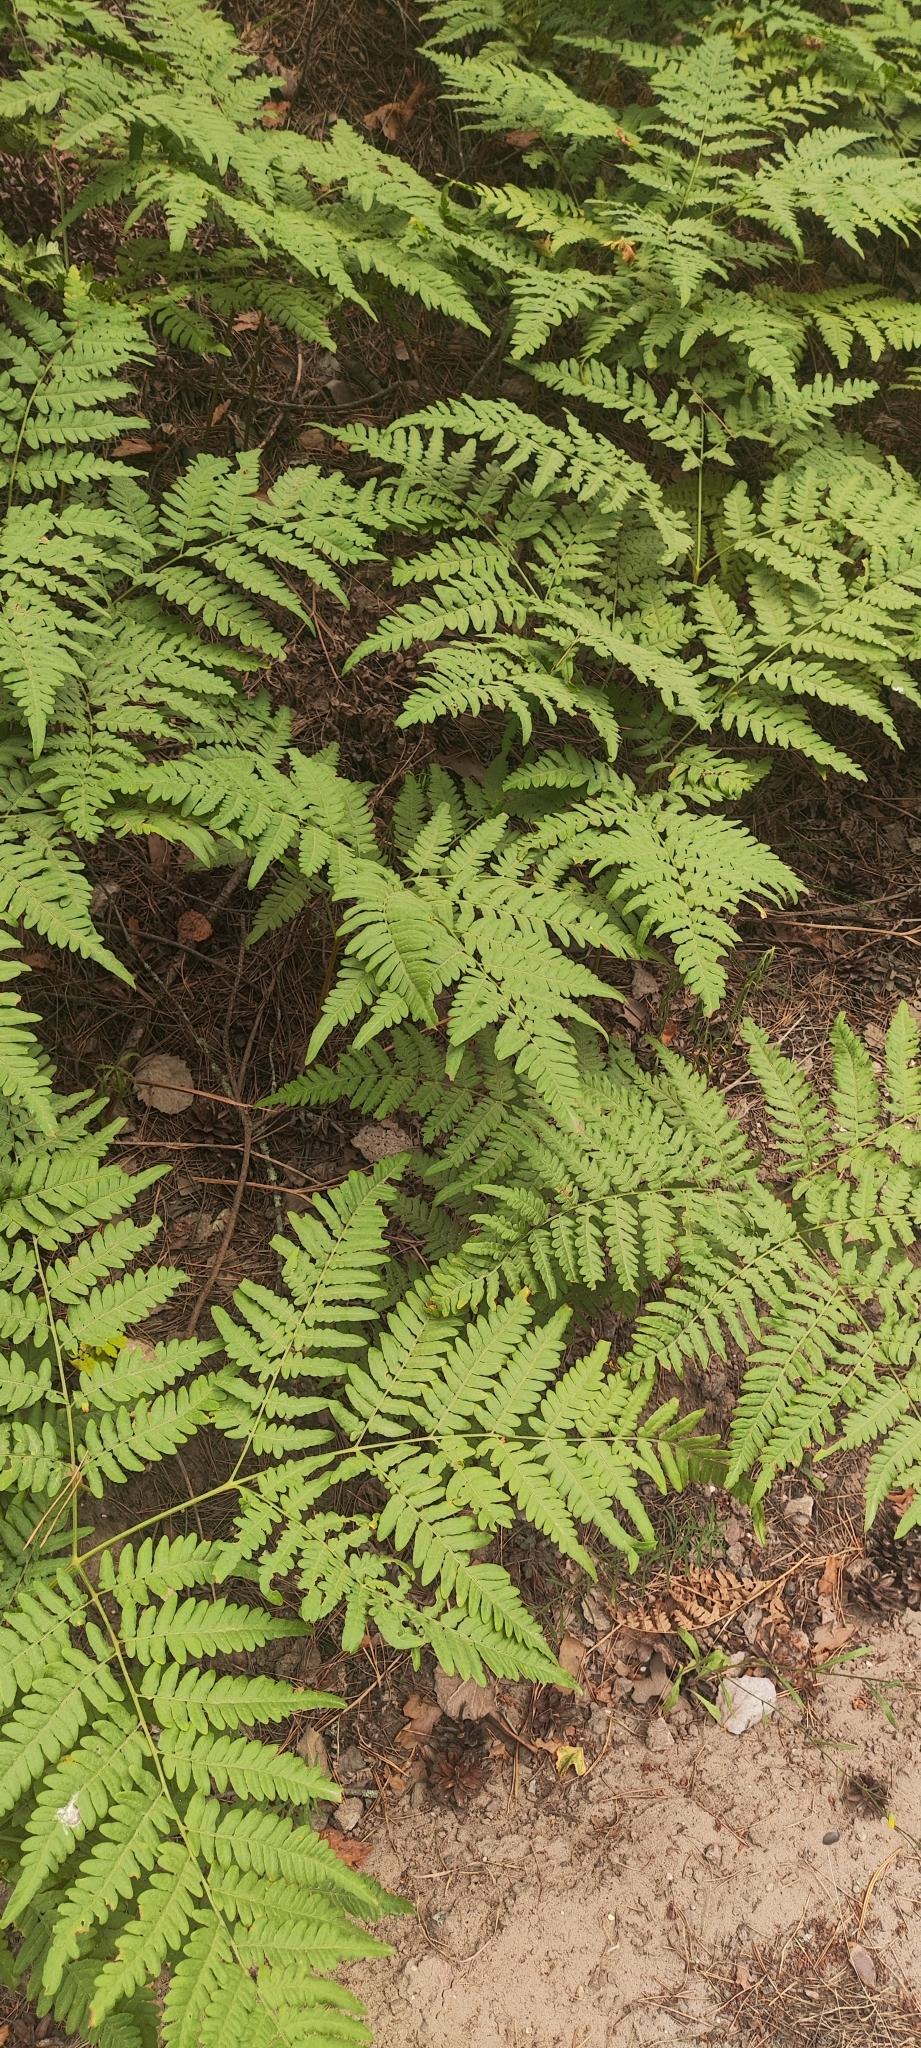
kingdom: Plantae
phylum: Tracheophyta
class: Polypodiopsida
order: Polypodiales
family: Dennstaedtiaceae
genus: Pteridium
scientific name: Pteridium aquilinum
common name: Bracken
